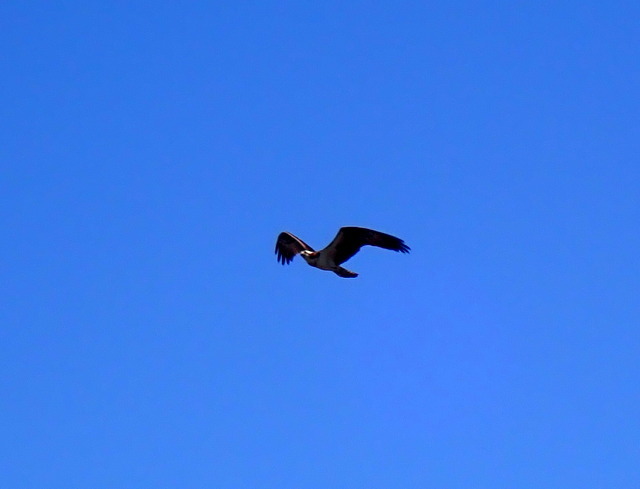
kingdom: Animalia
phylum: Chordata
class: Aves
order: Accipitriformes
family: Pandionidae
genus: Pandion
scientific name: Pandion haliaetus
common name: Osprey
